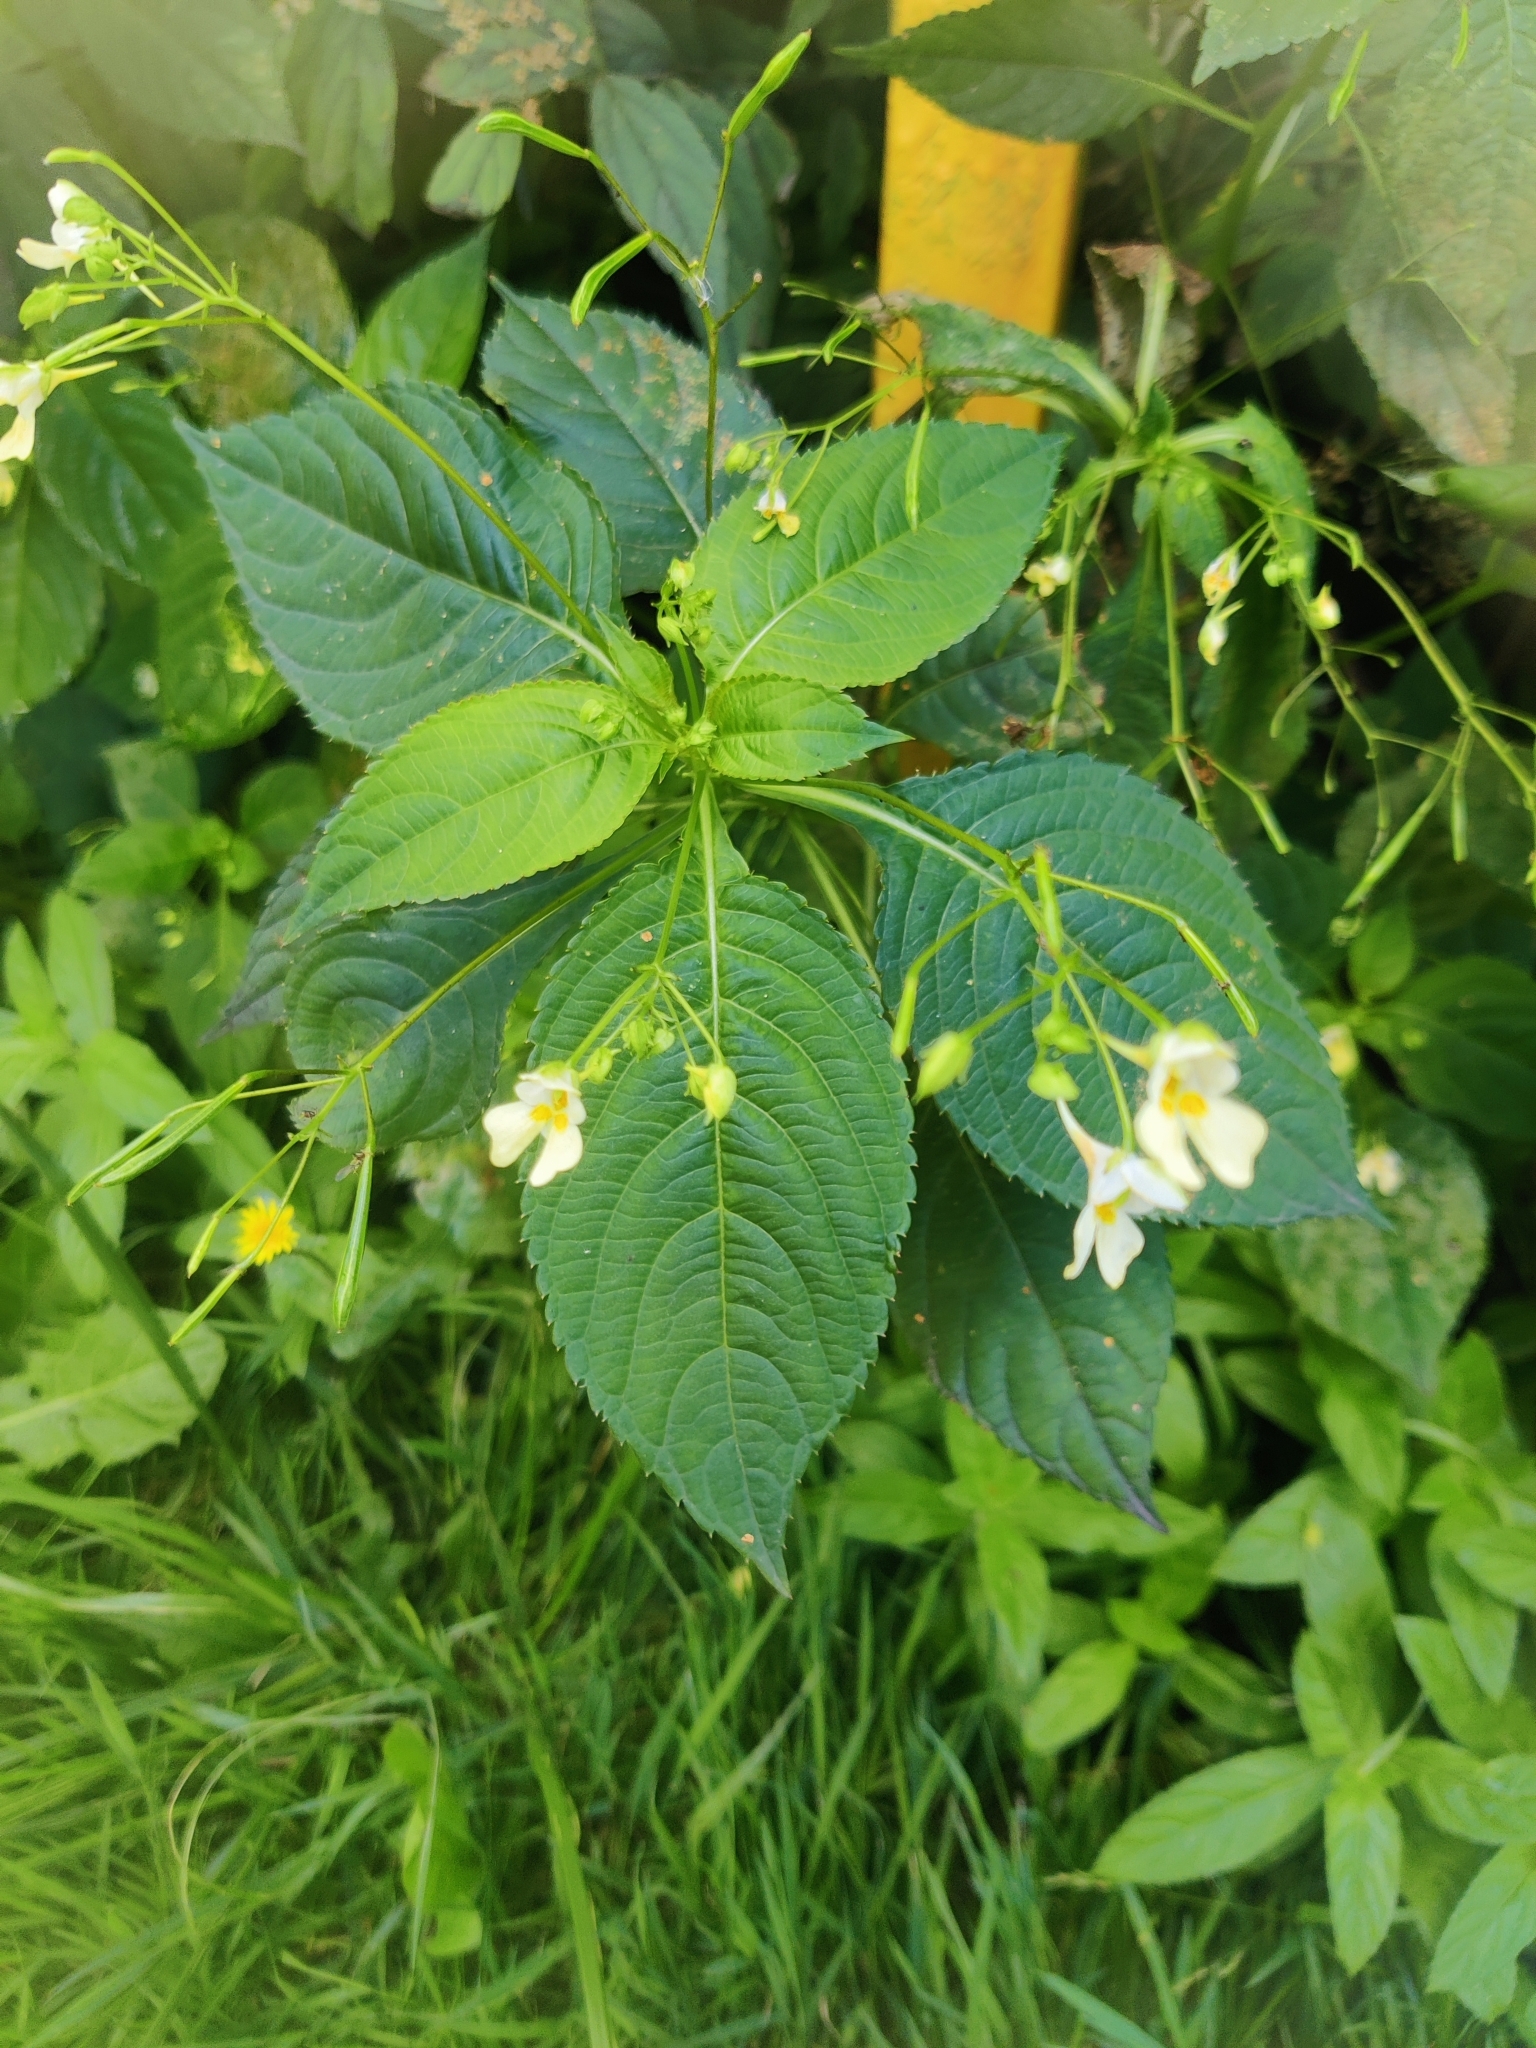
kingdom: Plantae
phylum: Tracheophyta
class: Magnoliopsida
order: Ericales
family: Balsaminaceae
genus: Impatiens
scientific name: Impatiens parviflora
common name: Small balsam
